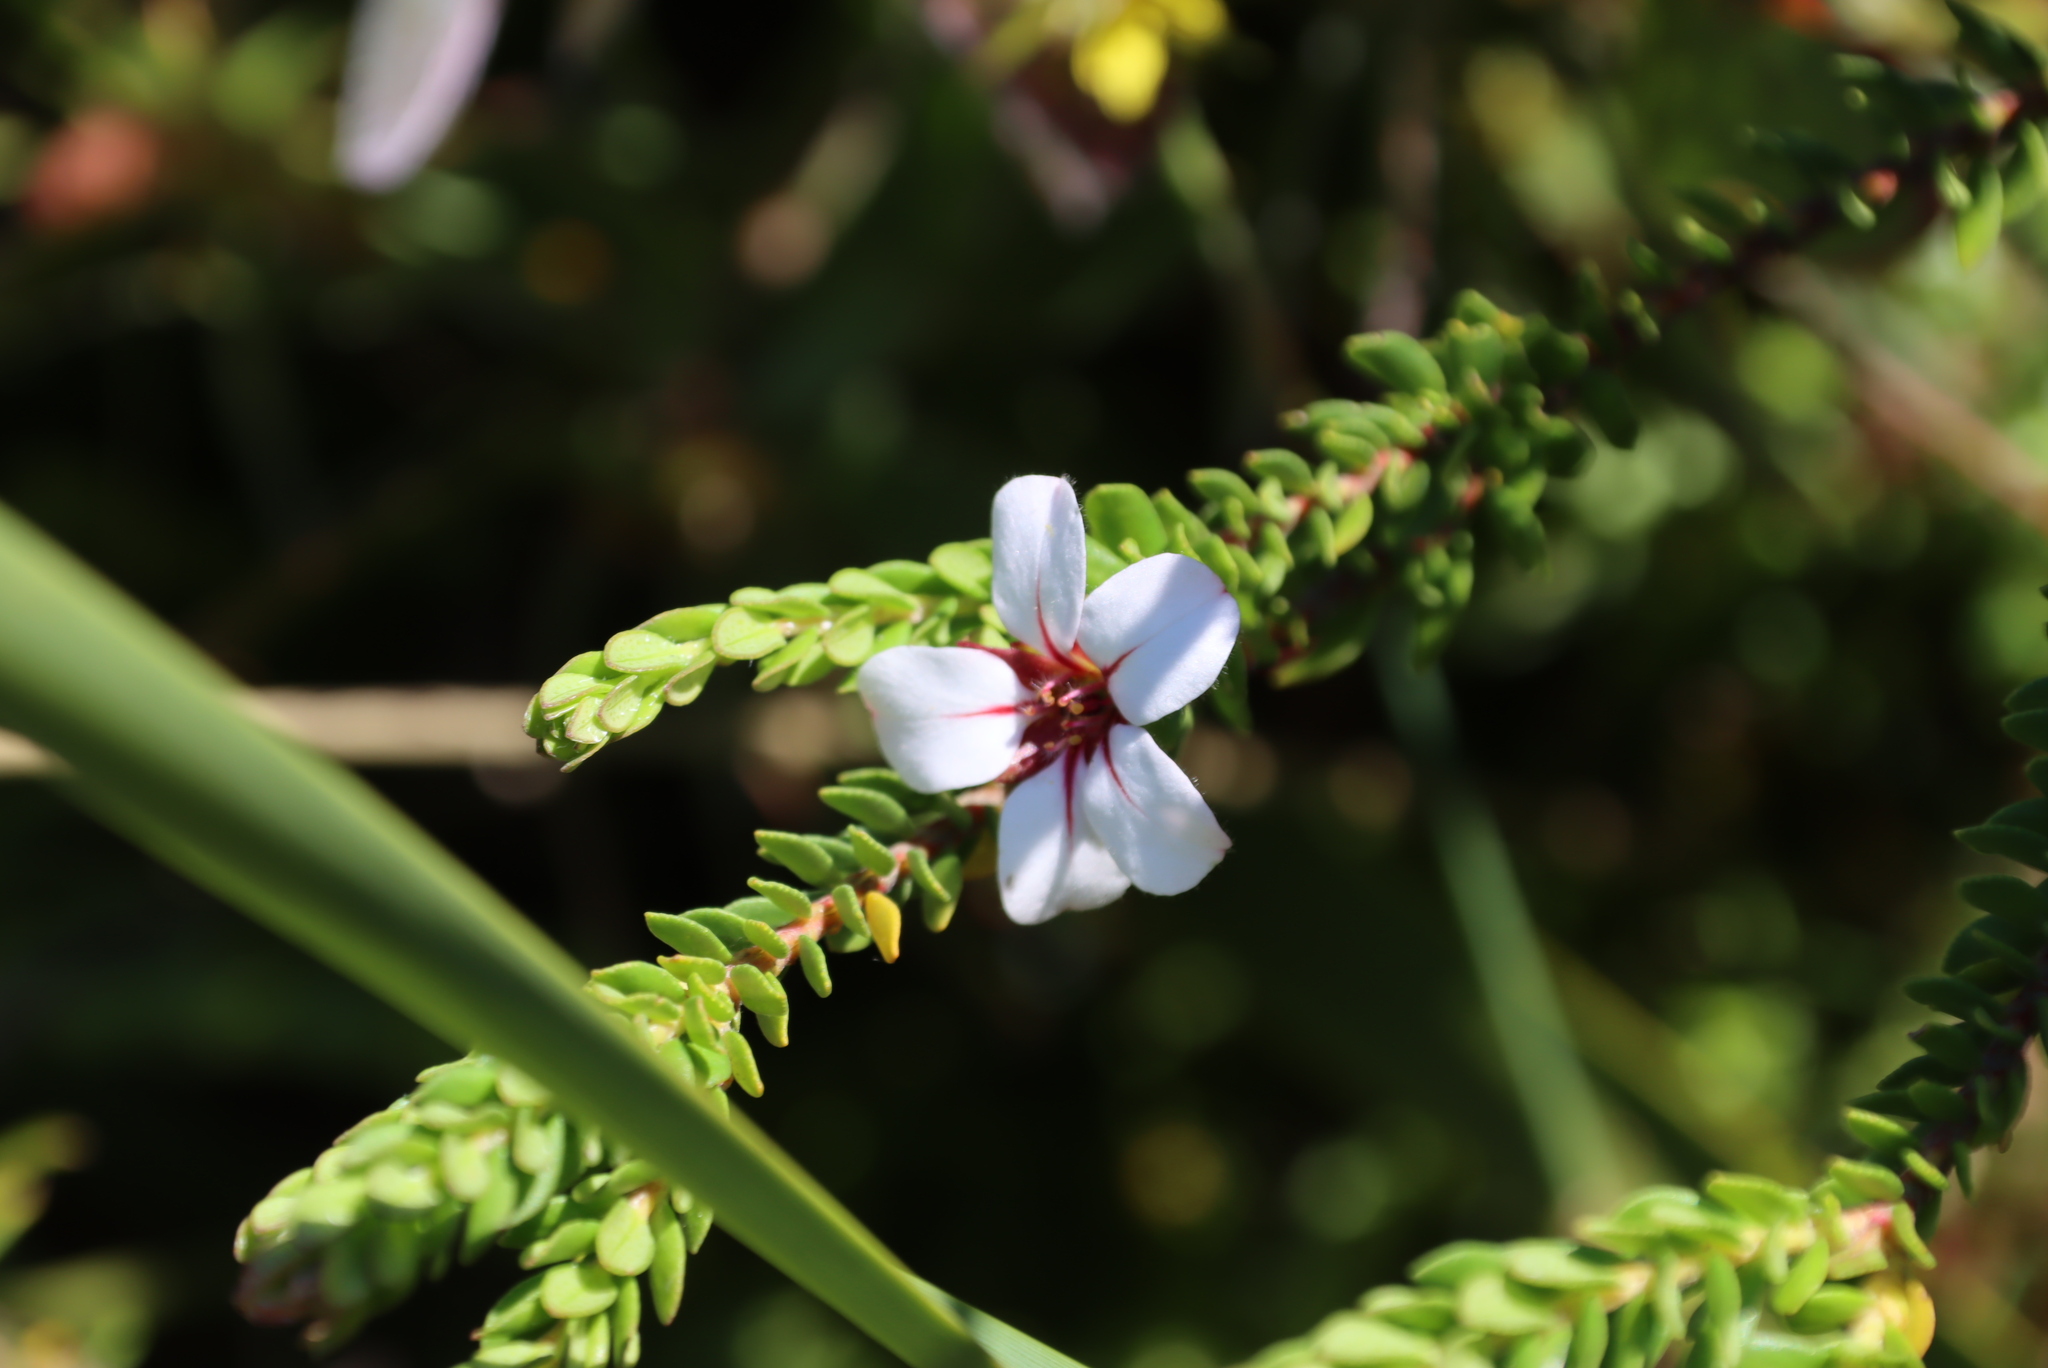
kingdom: Plantae
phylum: Tracheophyta
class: Magnoliopsida
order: Sapindales
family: Rutaceae
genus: Adenandra
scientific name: Adenandra uniflora
